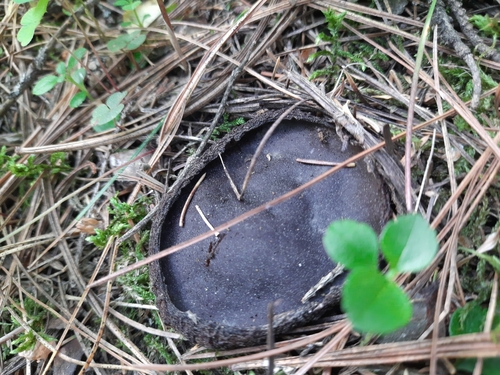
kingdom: Fungi
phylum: Ascomycota
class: Pezizomycetes
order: Pezizales
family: Sarcosomataceae
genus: Sarcosoma
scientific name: Sarcosoma globosum
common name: Charred-pancake cup
